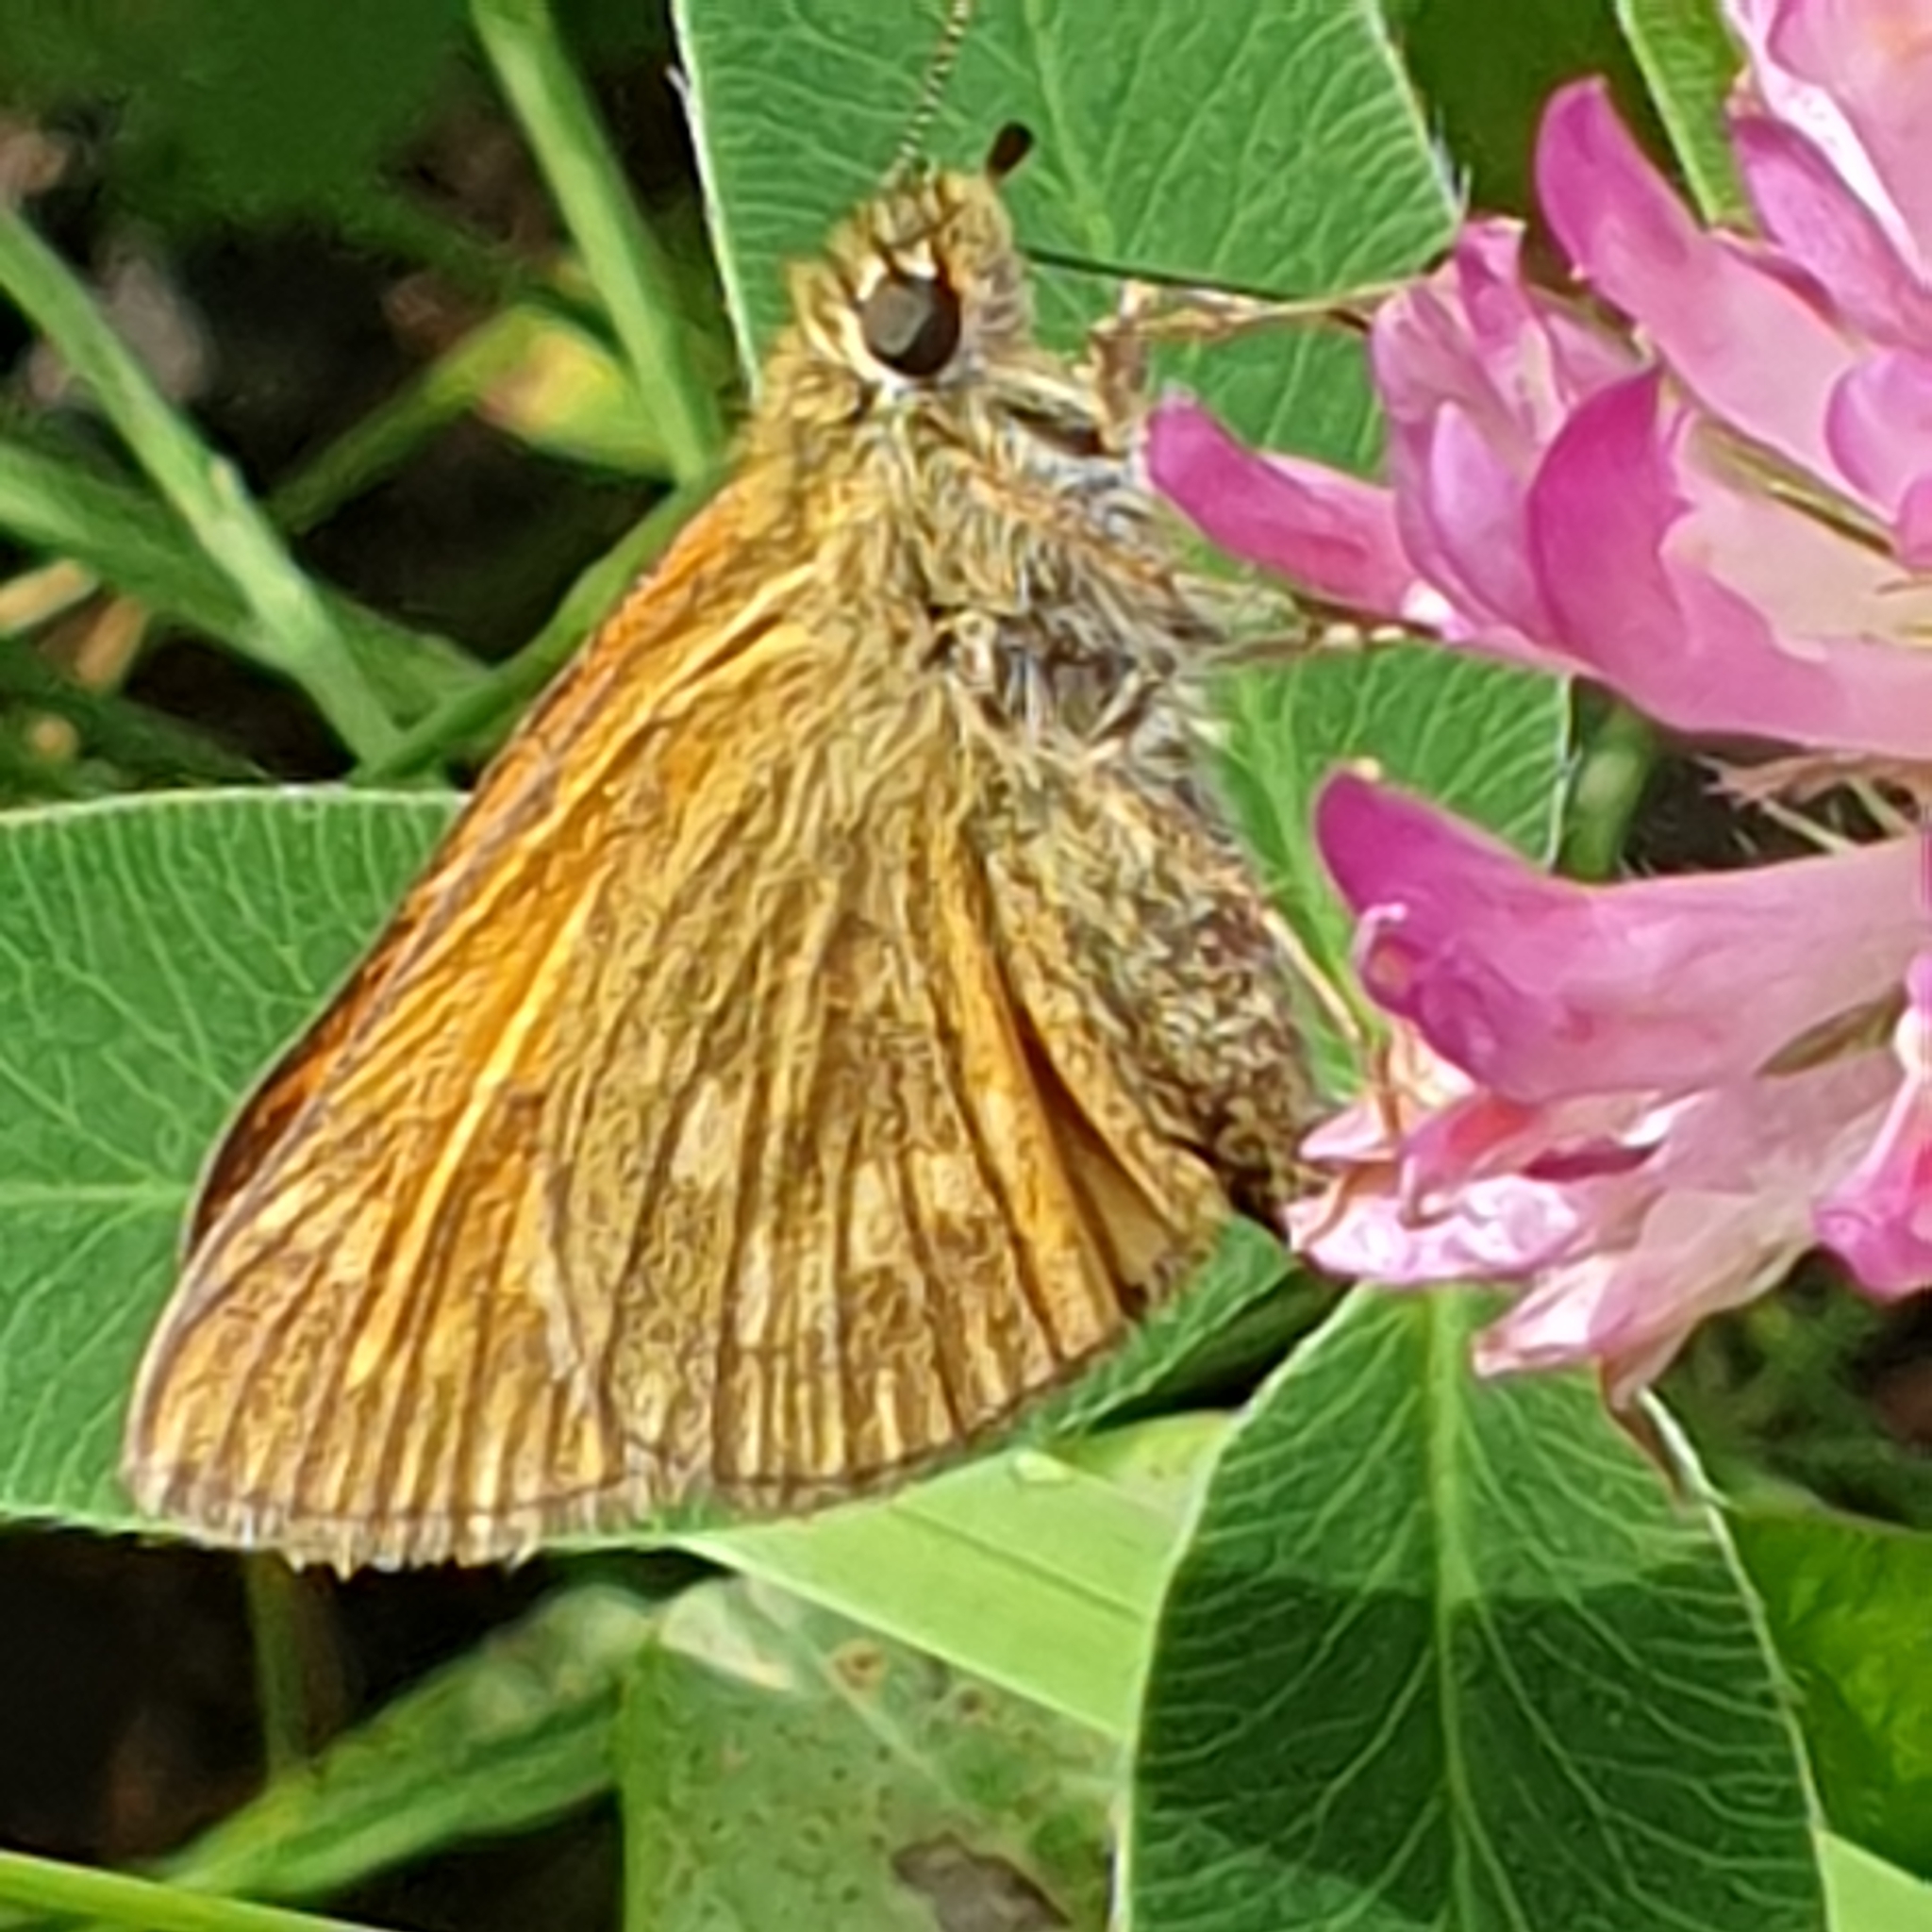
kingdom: Animalia
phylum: Arthropoda
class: Insecta
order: Lepidoptera
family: Hesperiidae
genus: Ochlodes
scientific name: Ochlodes venata
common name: Large skipper
